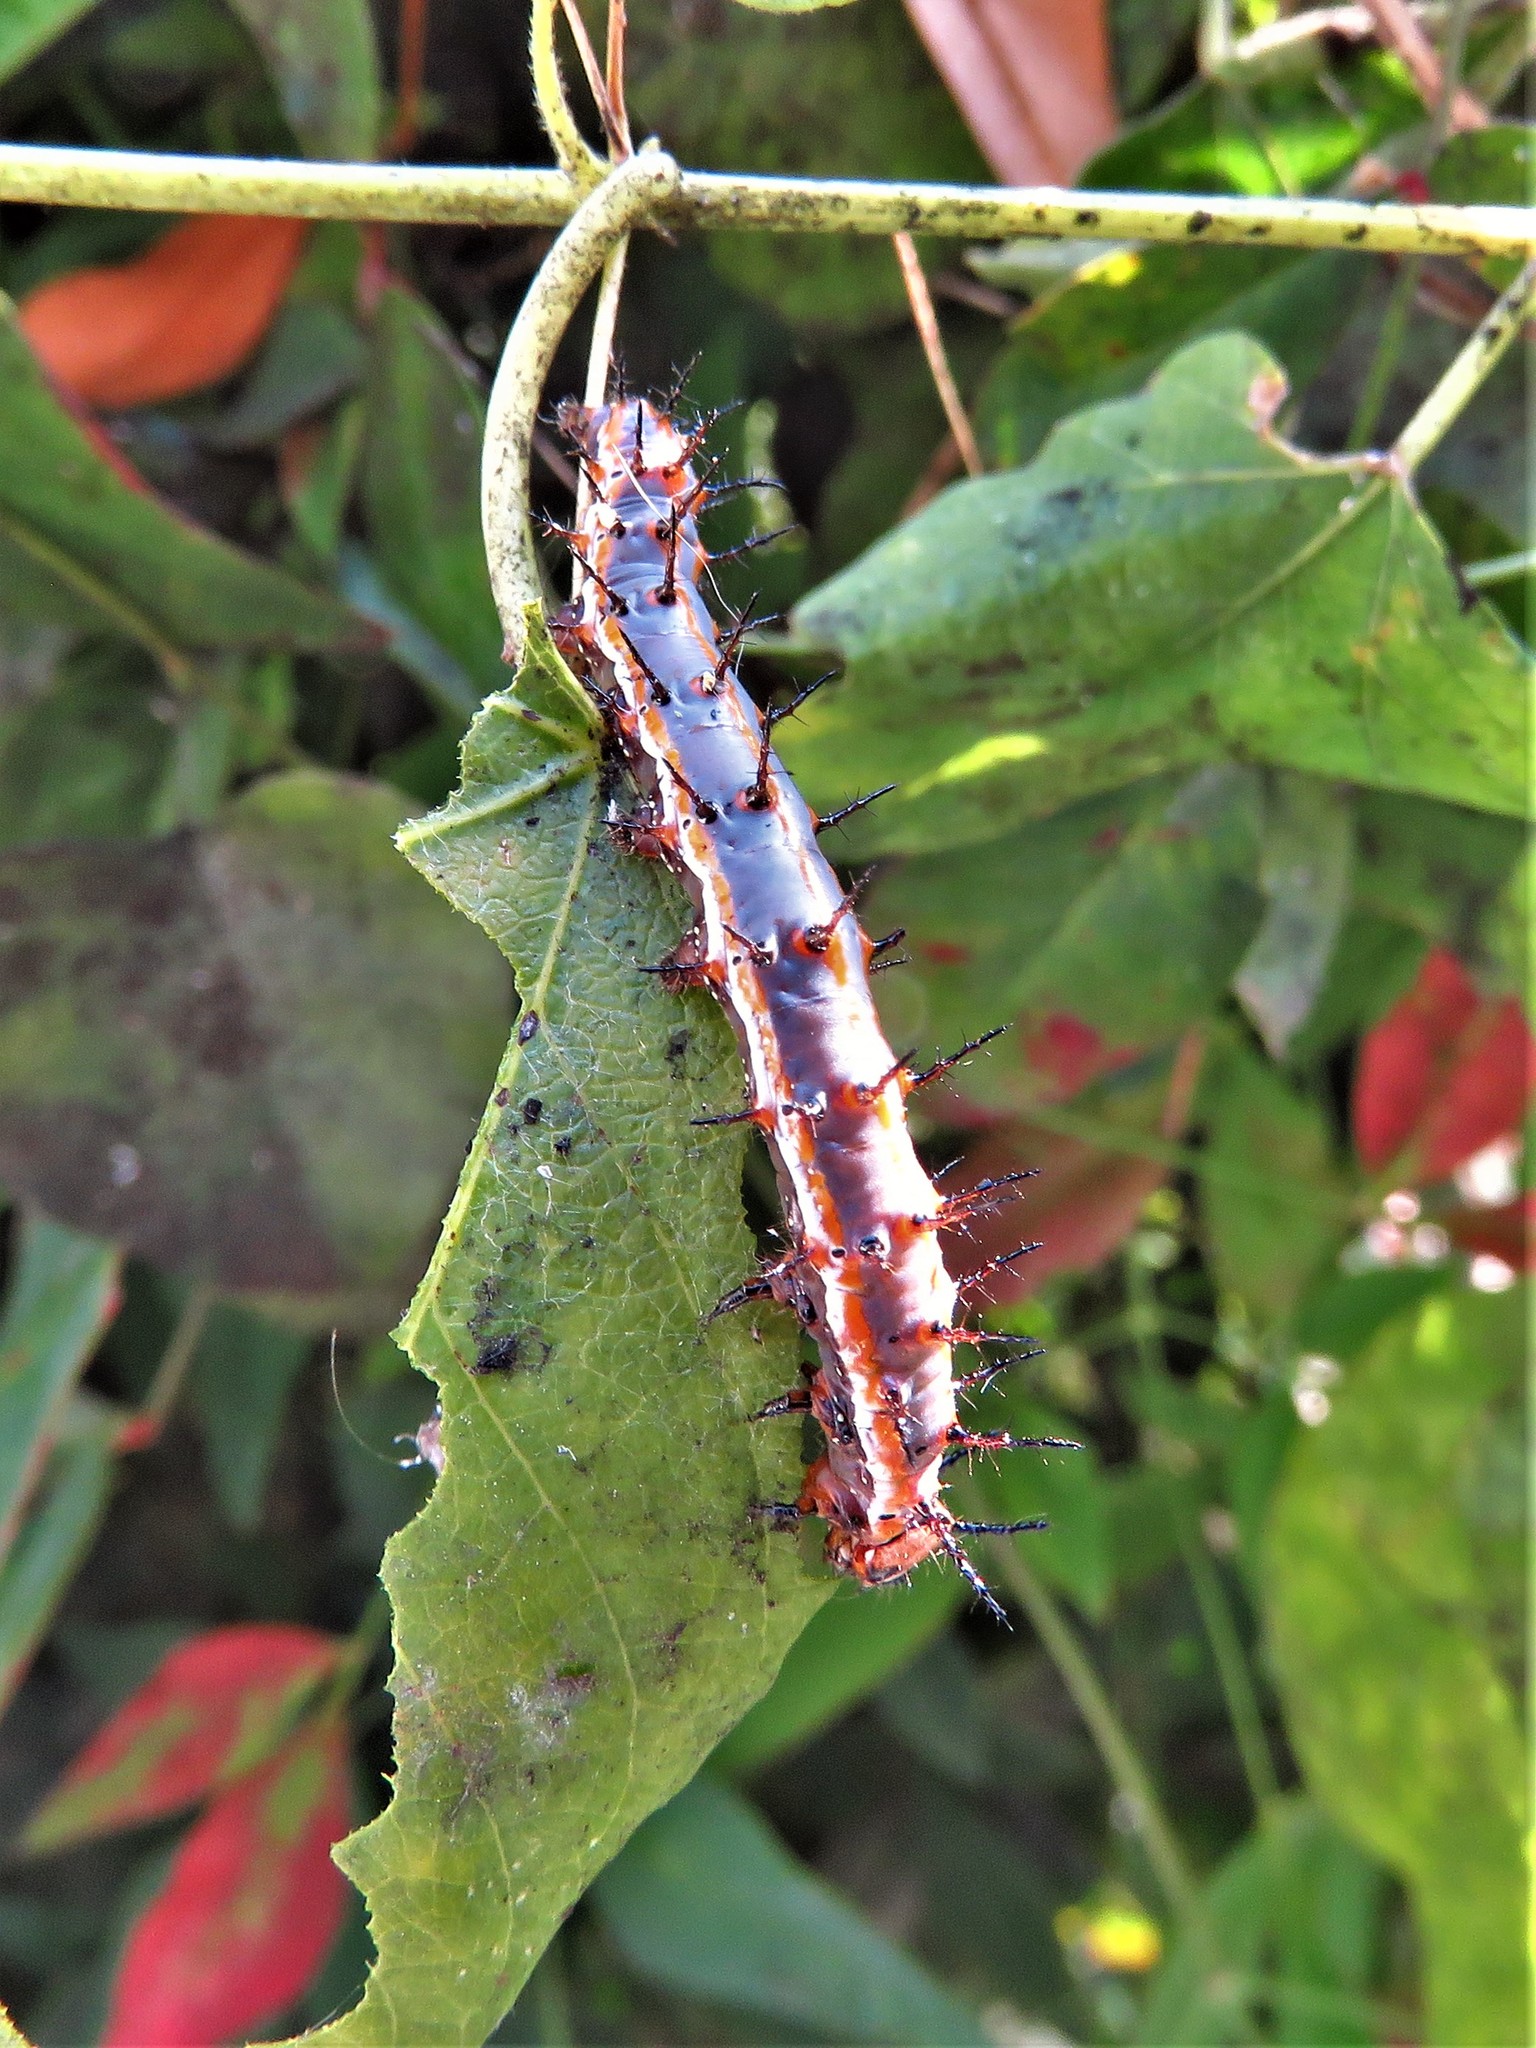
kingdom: Animalia
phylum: Arthropoda
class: Insecta
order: Lepidoptera
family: Nymphalidae
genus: Dione
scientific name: Dione vanillae
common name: Gulf fritillary
